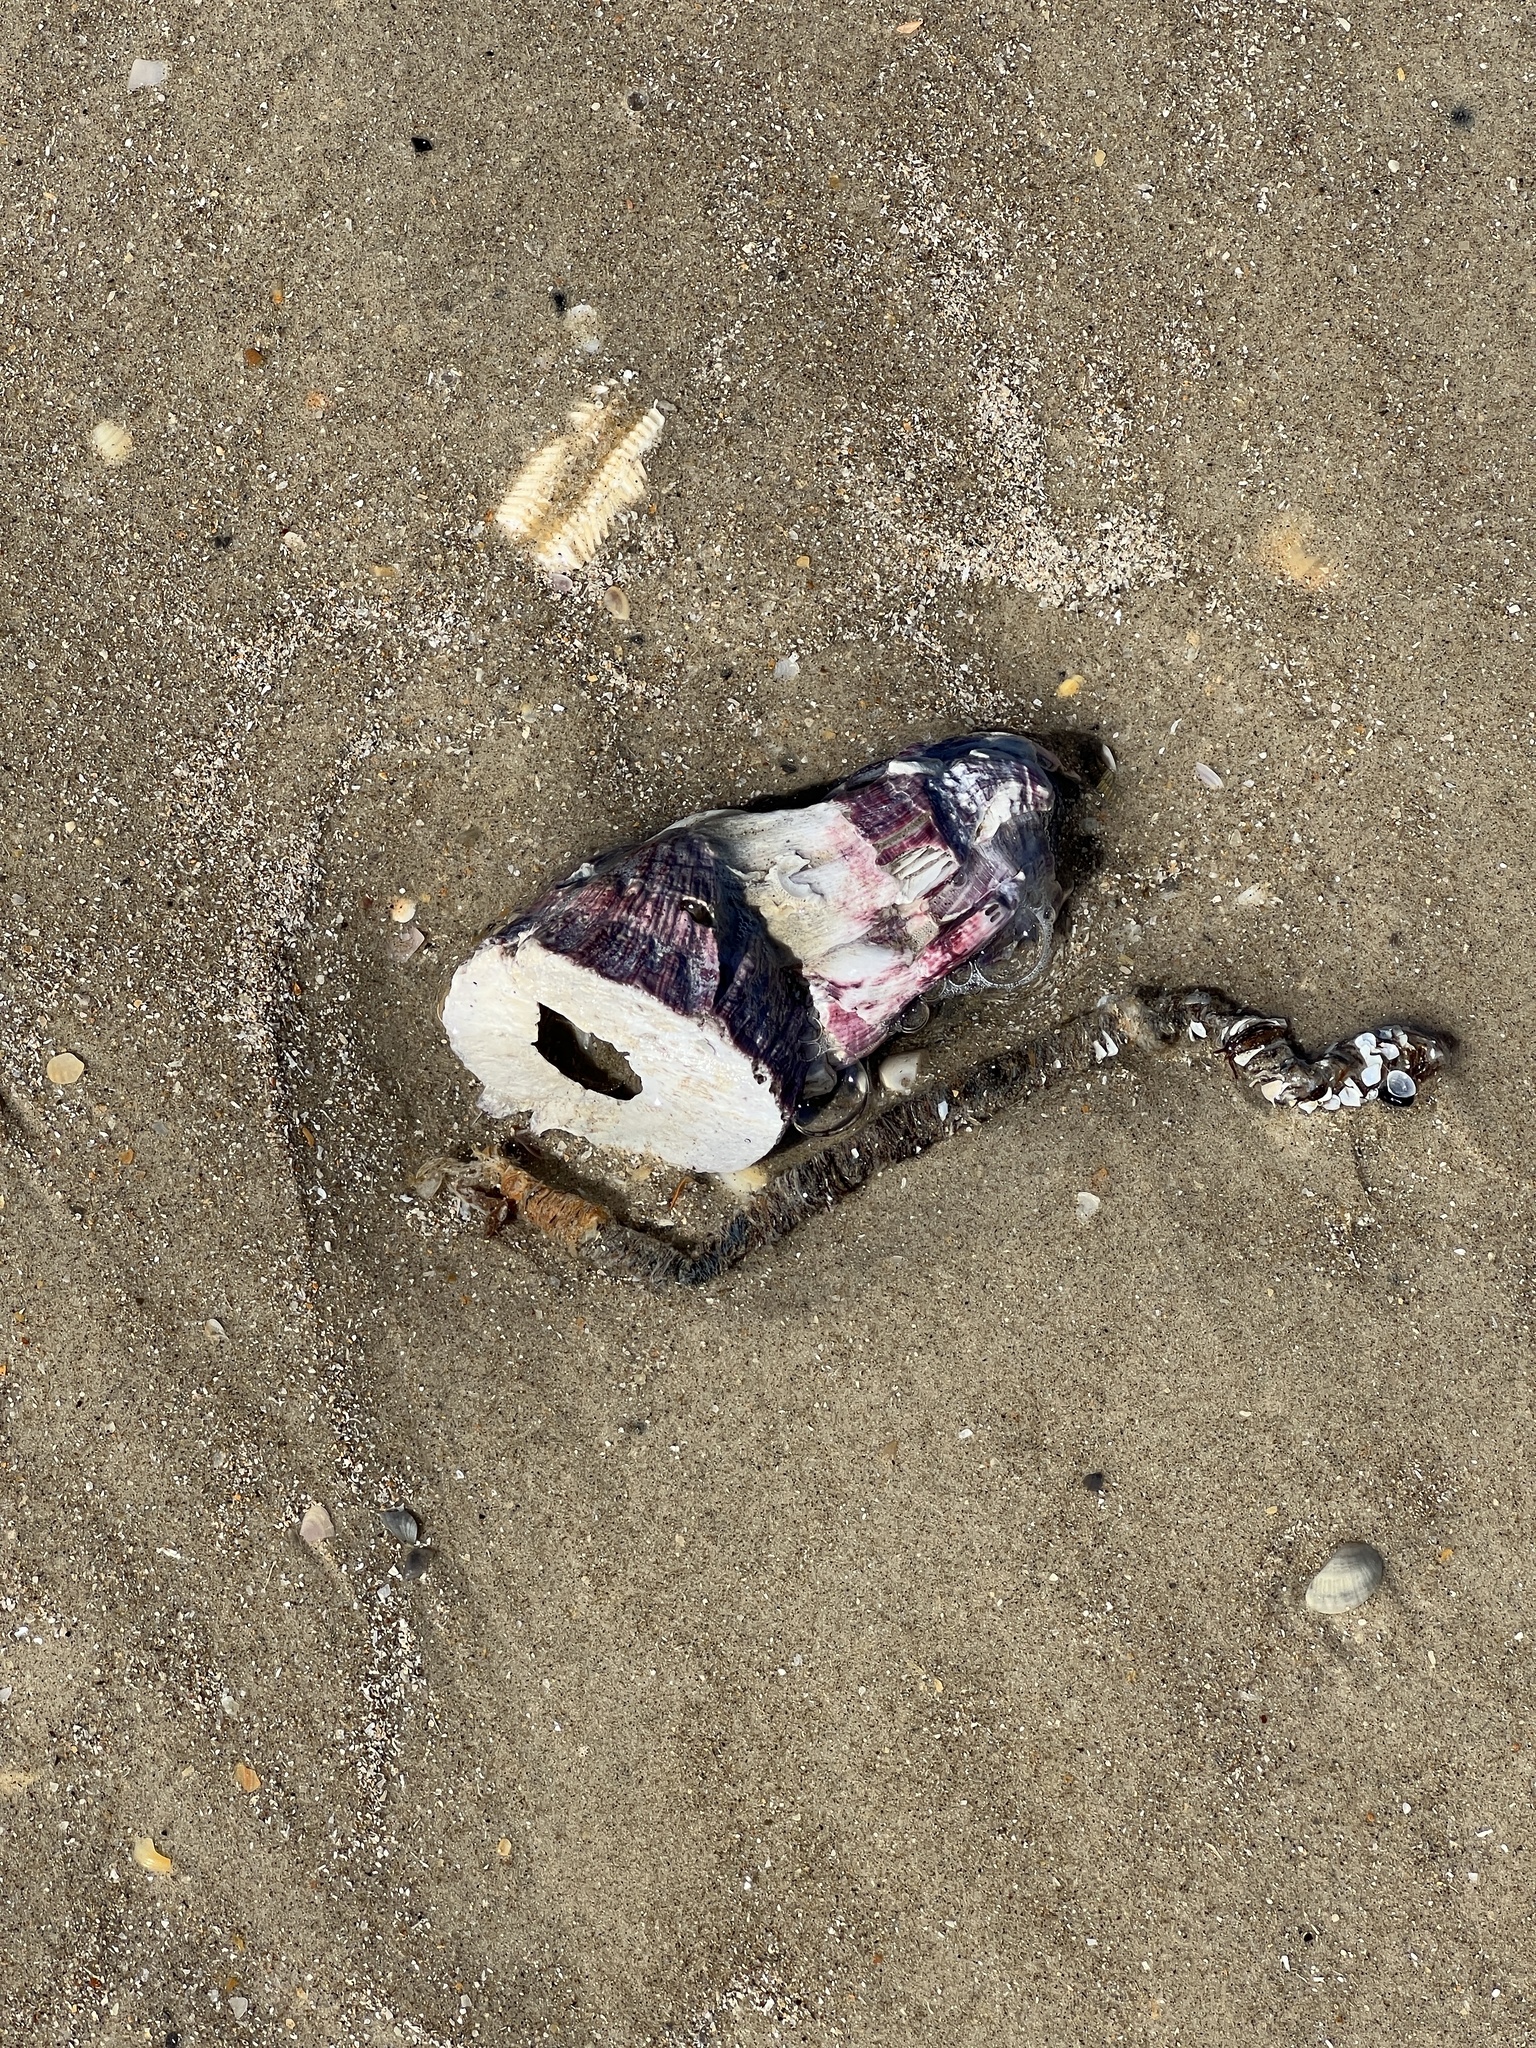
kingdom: Animalia
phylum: Arthropoda
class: Maxillopoda
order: Sessilia
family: Balanidae
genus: Megabalanus
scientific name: Megabalanus tintinnabulum
